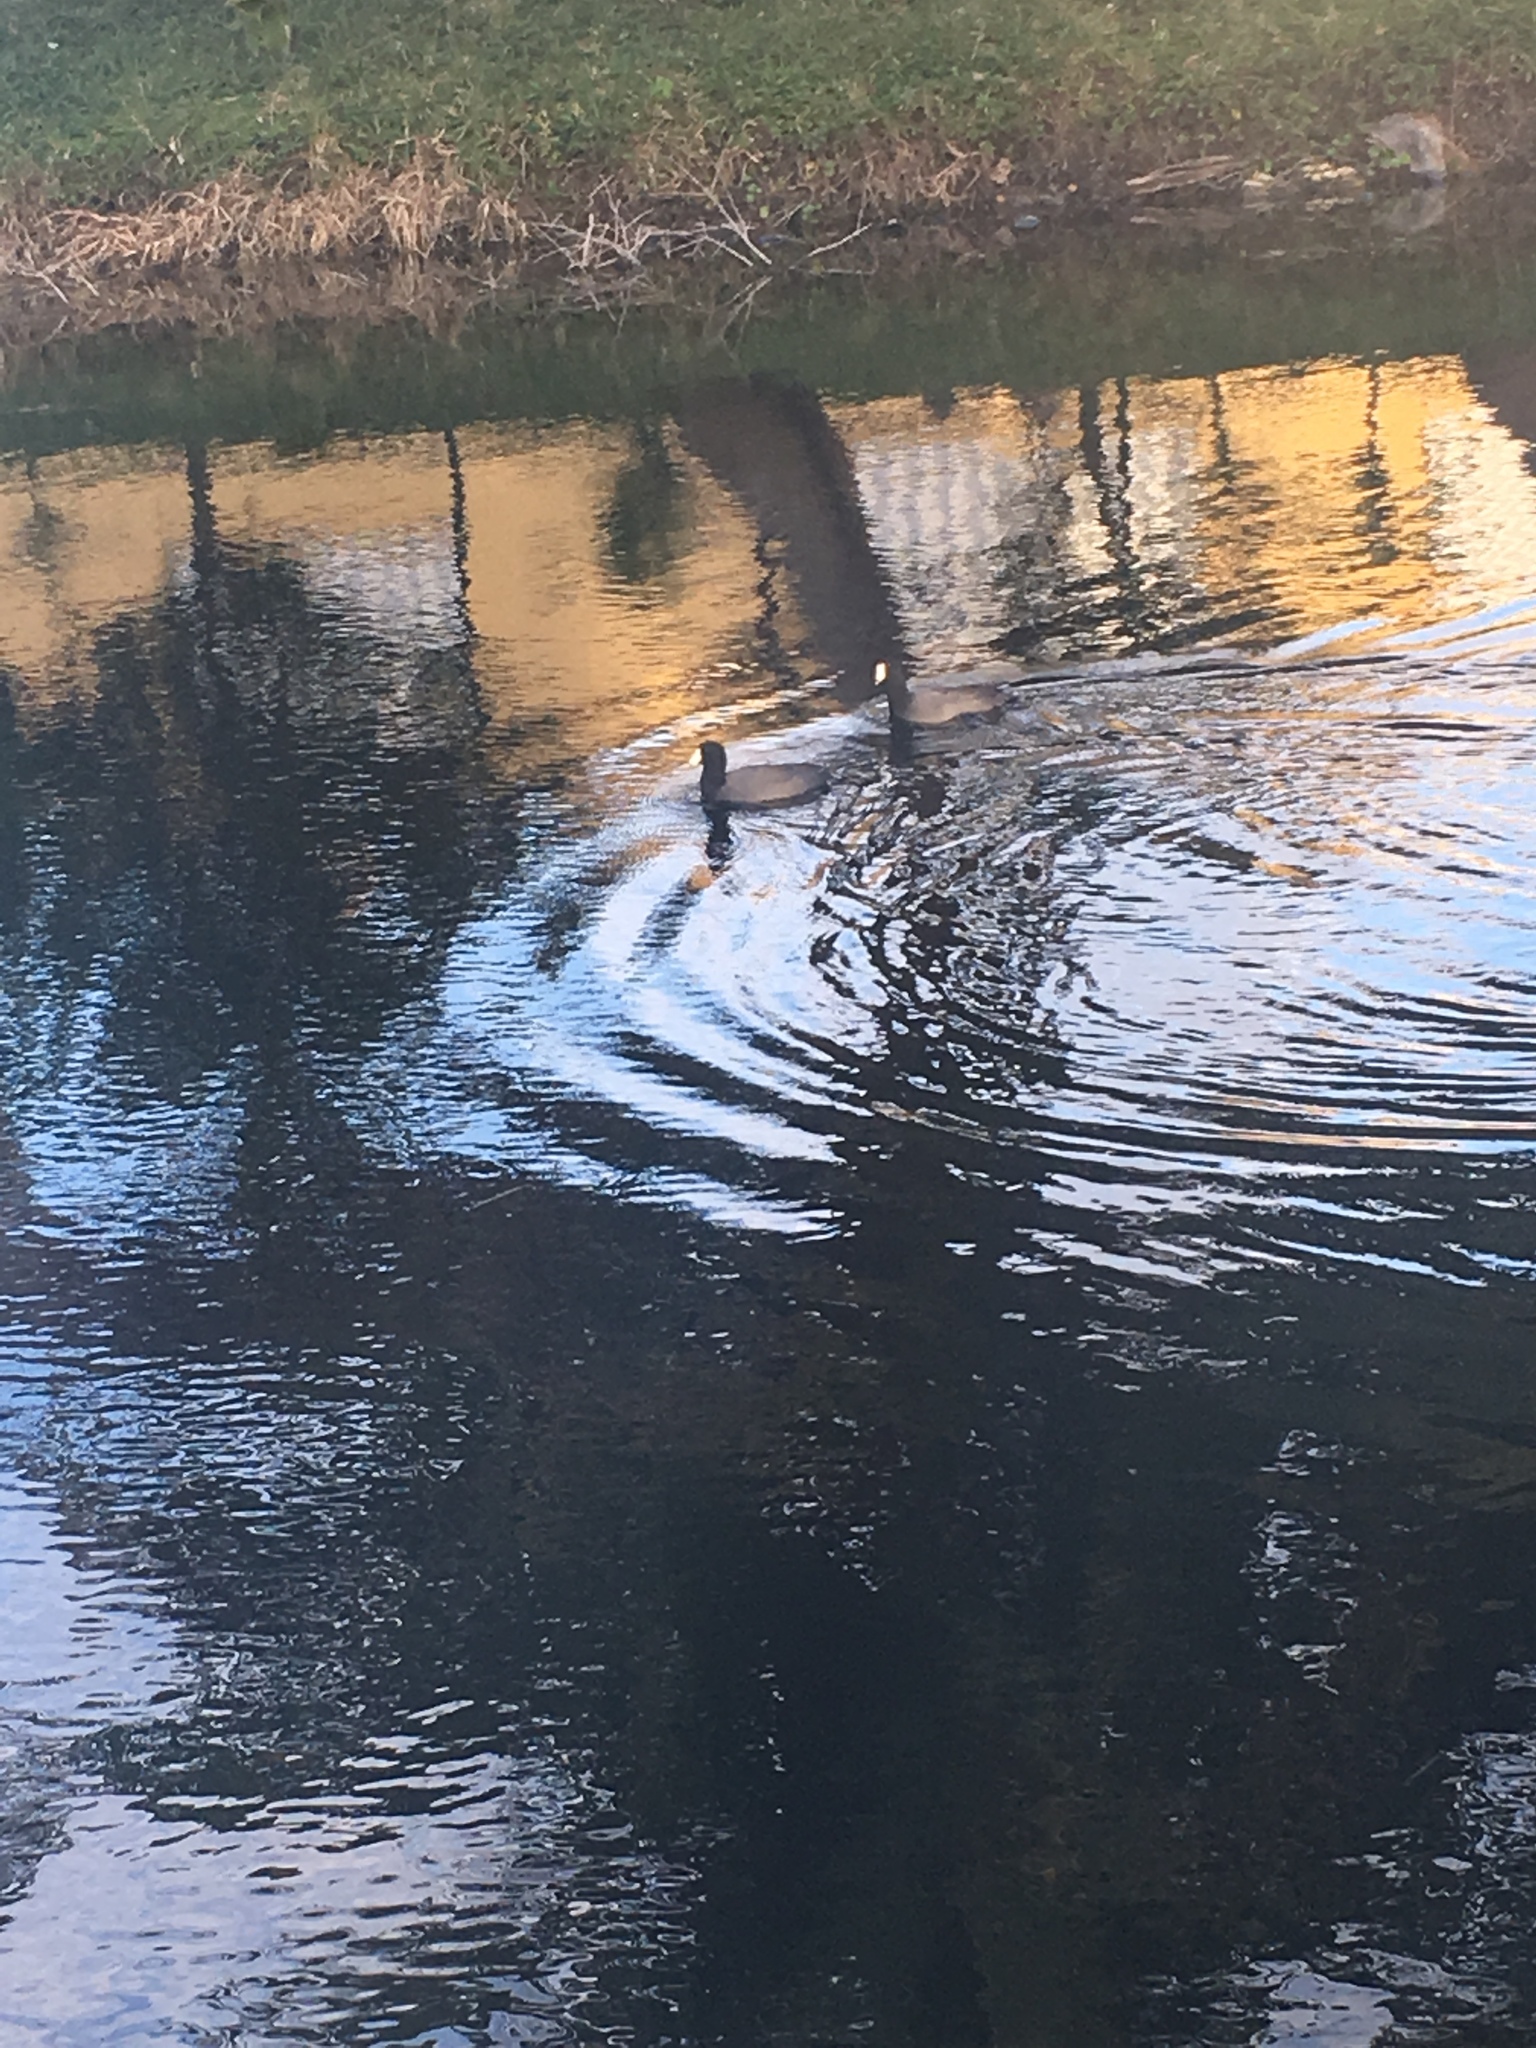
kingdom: Animalia
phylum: Chordata
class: Aves
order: Gruiformes
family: Rallidae
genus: Fulica
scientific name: Fulica americana
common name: American coot
